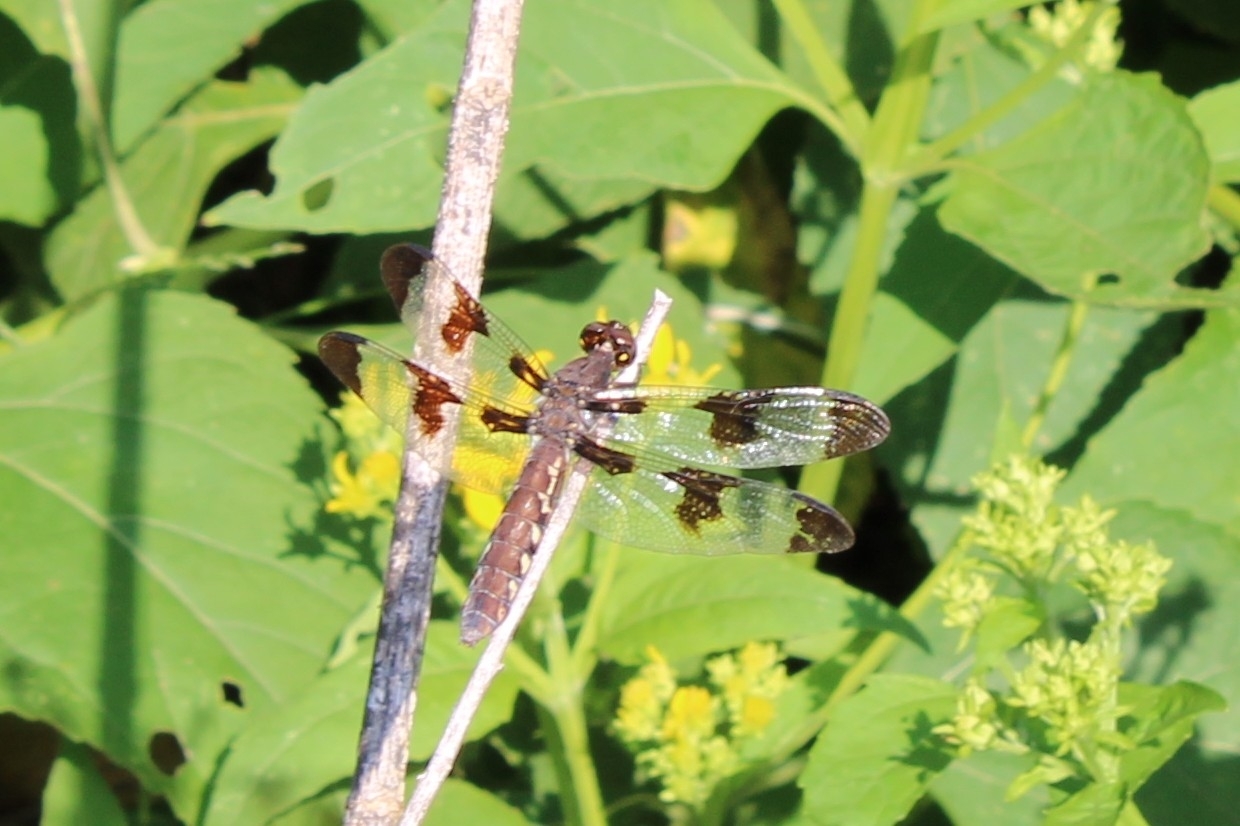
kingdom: Animalia
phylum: Arthropoda
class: Insecta
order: Odonata
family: Libellulidae
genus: Plathemis
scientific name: Plathemis lydia
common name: Common whitetail
